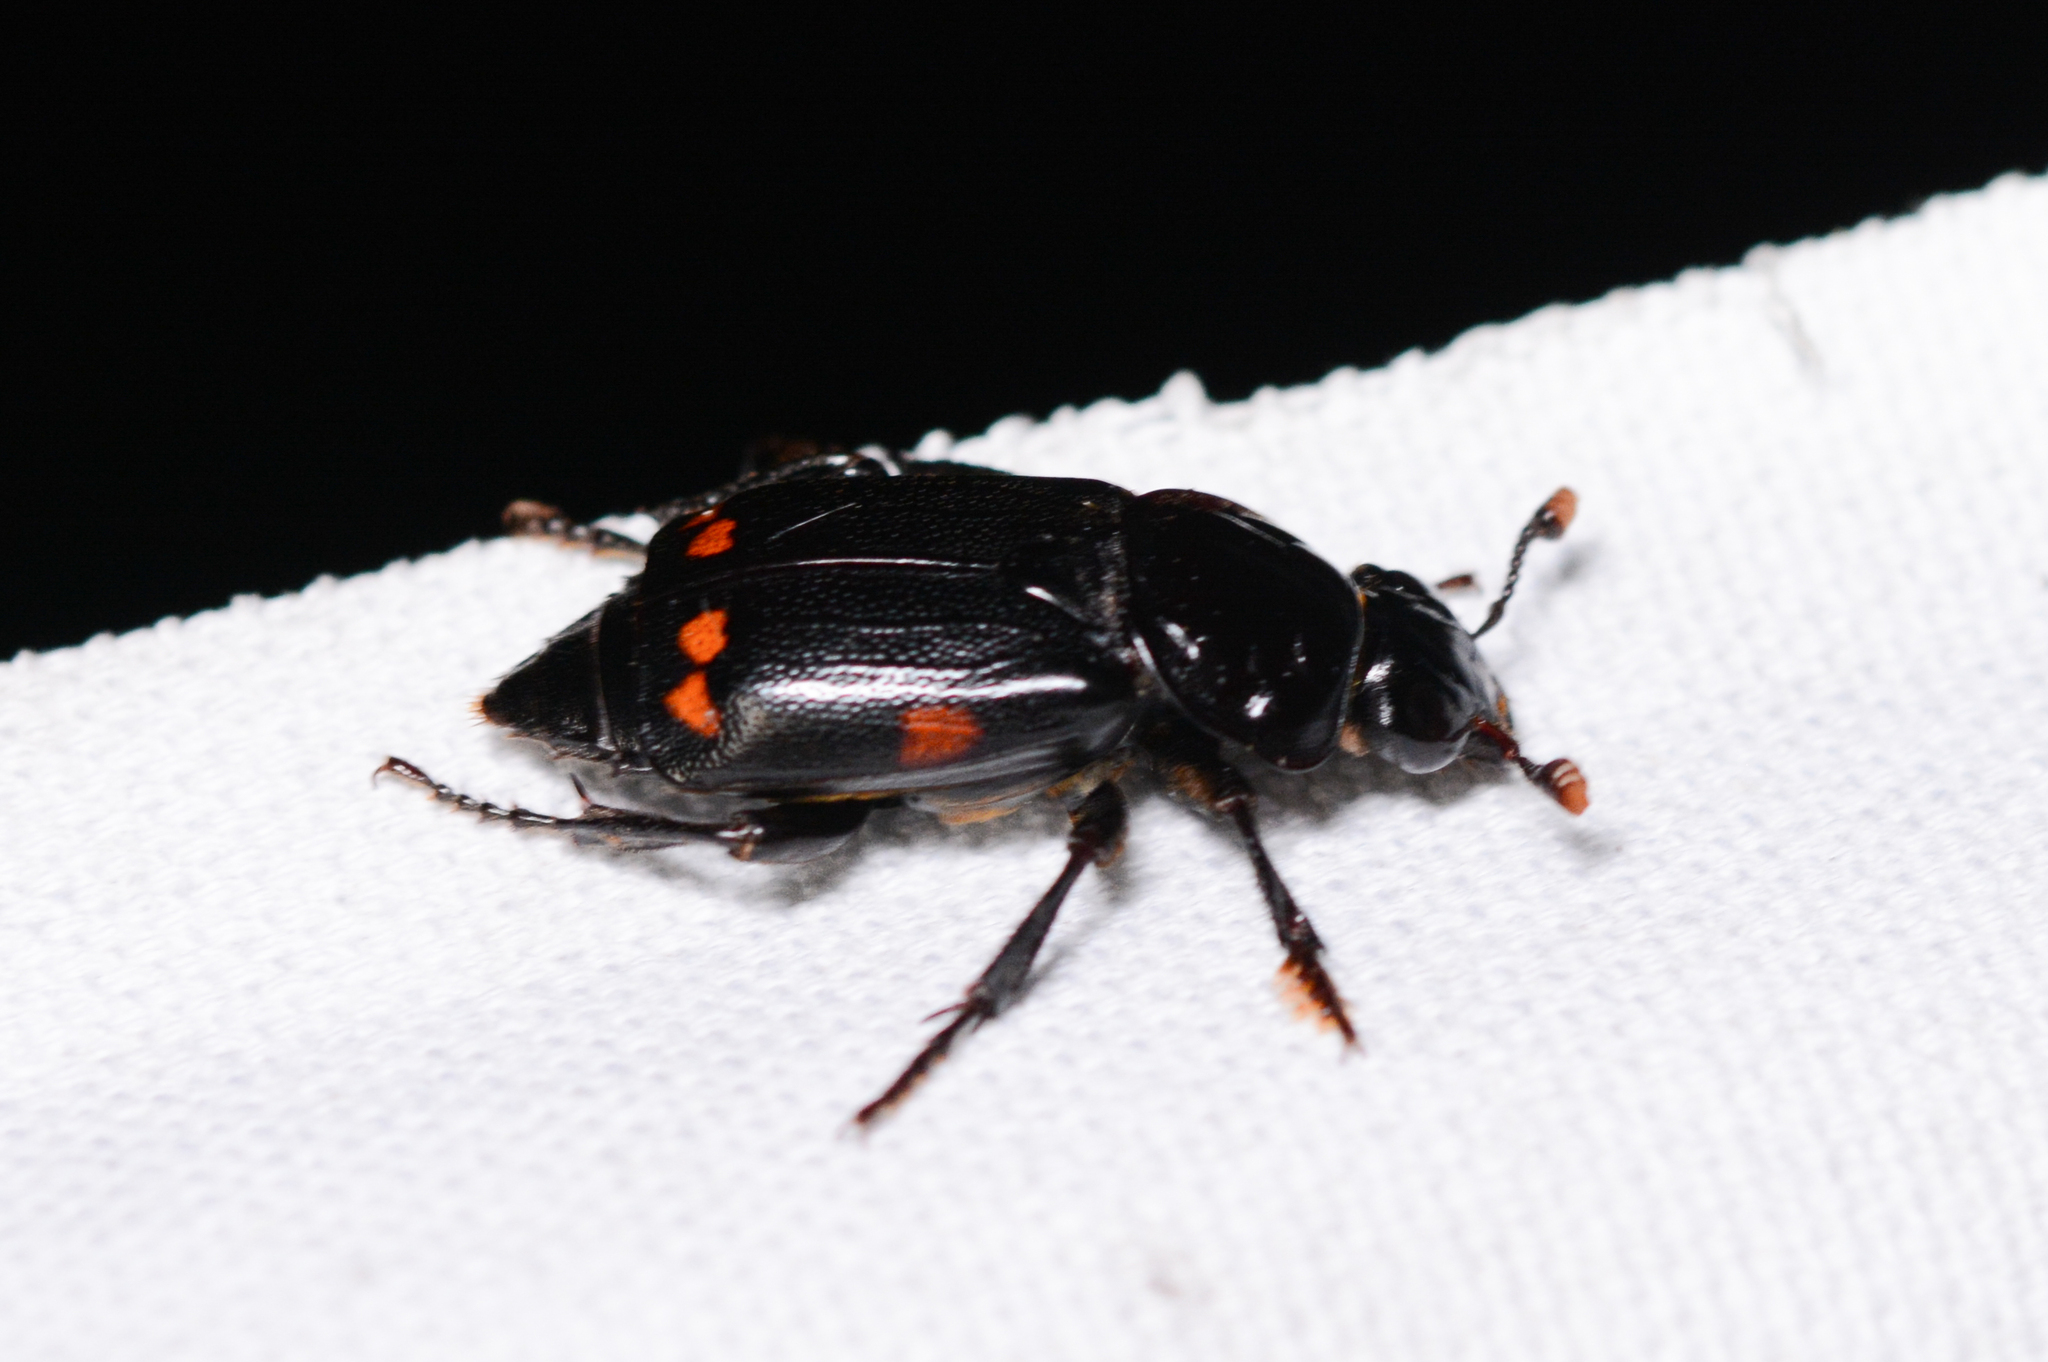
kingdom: Animalia
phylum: Arthropoda
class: Insecta
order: Coleoptera
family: Staphylinidae
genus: Nicrophorus
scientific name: Nicrophorus pustulatus
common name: Pustulated carrion beetle
